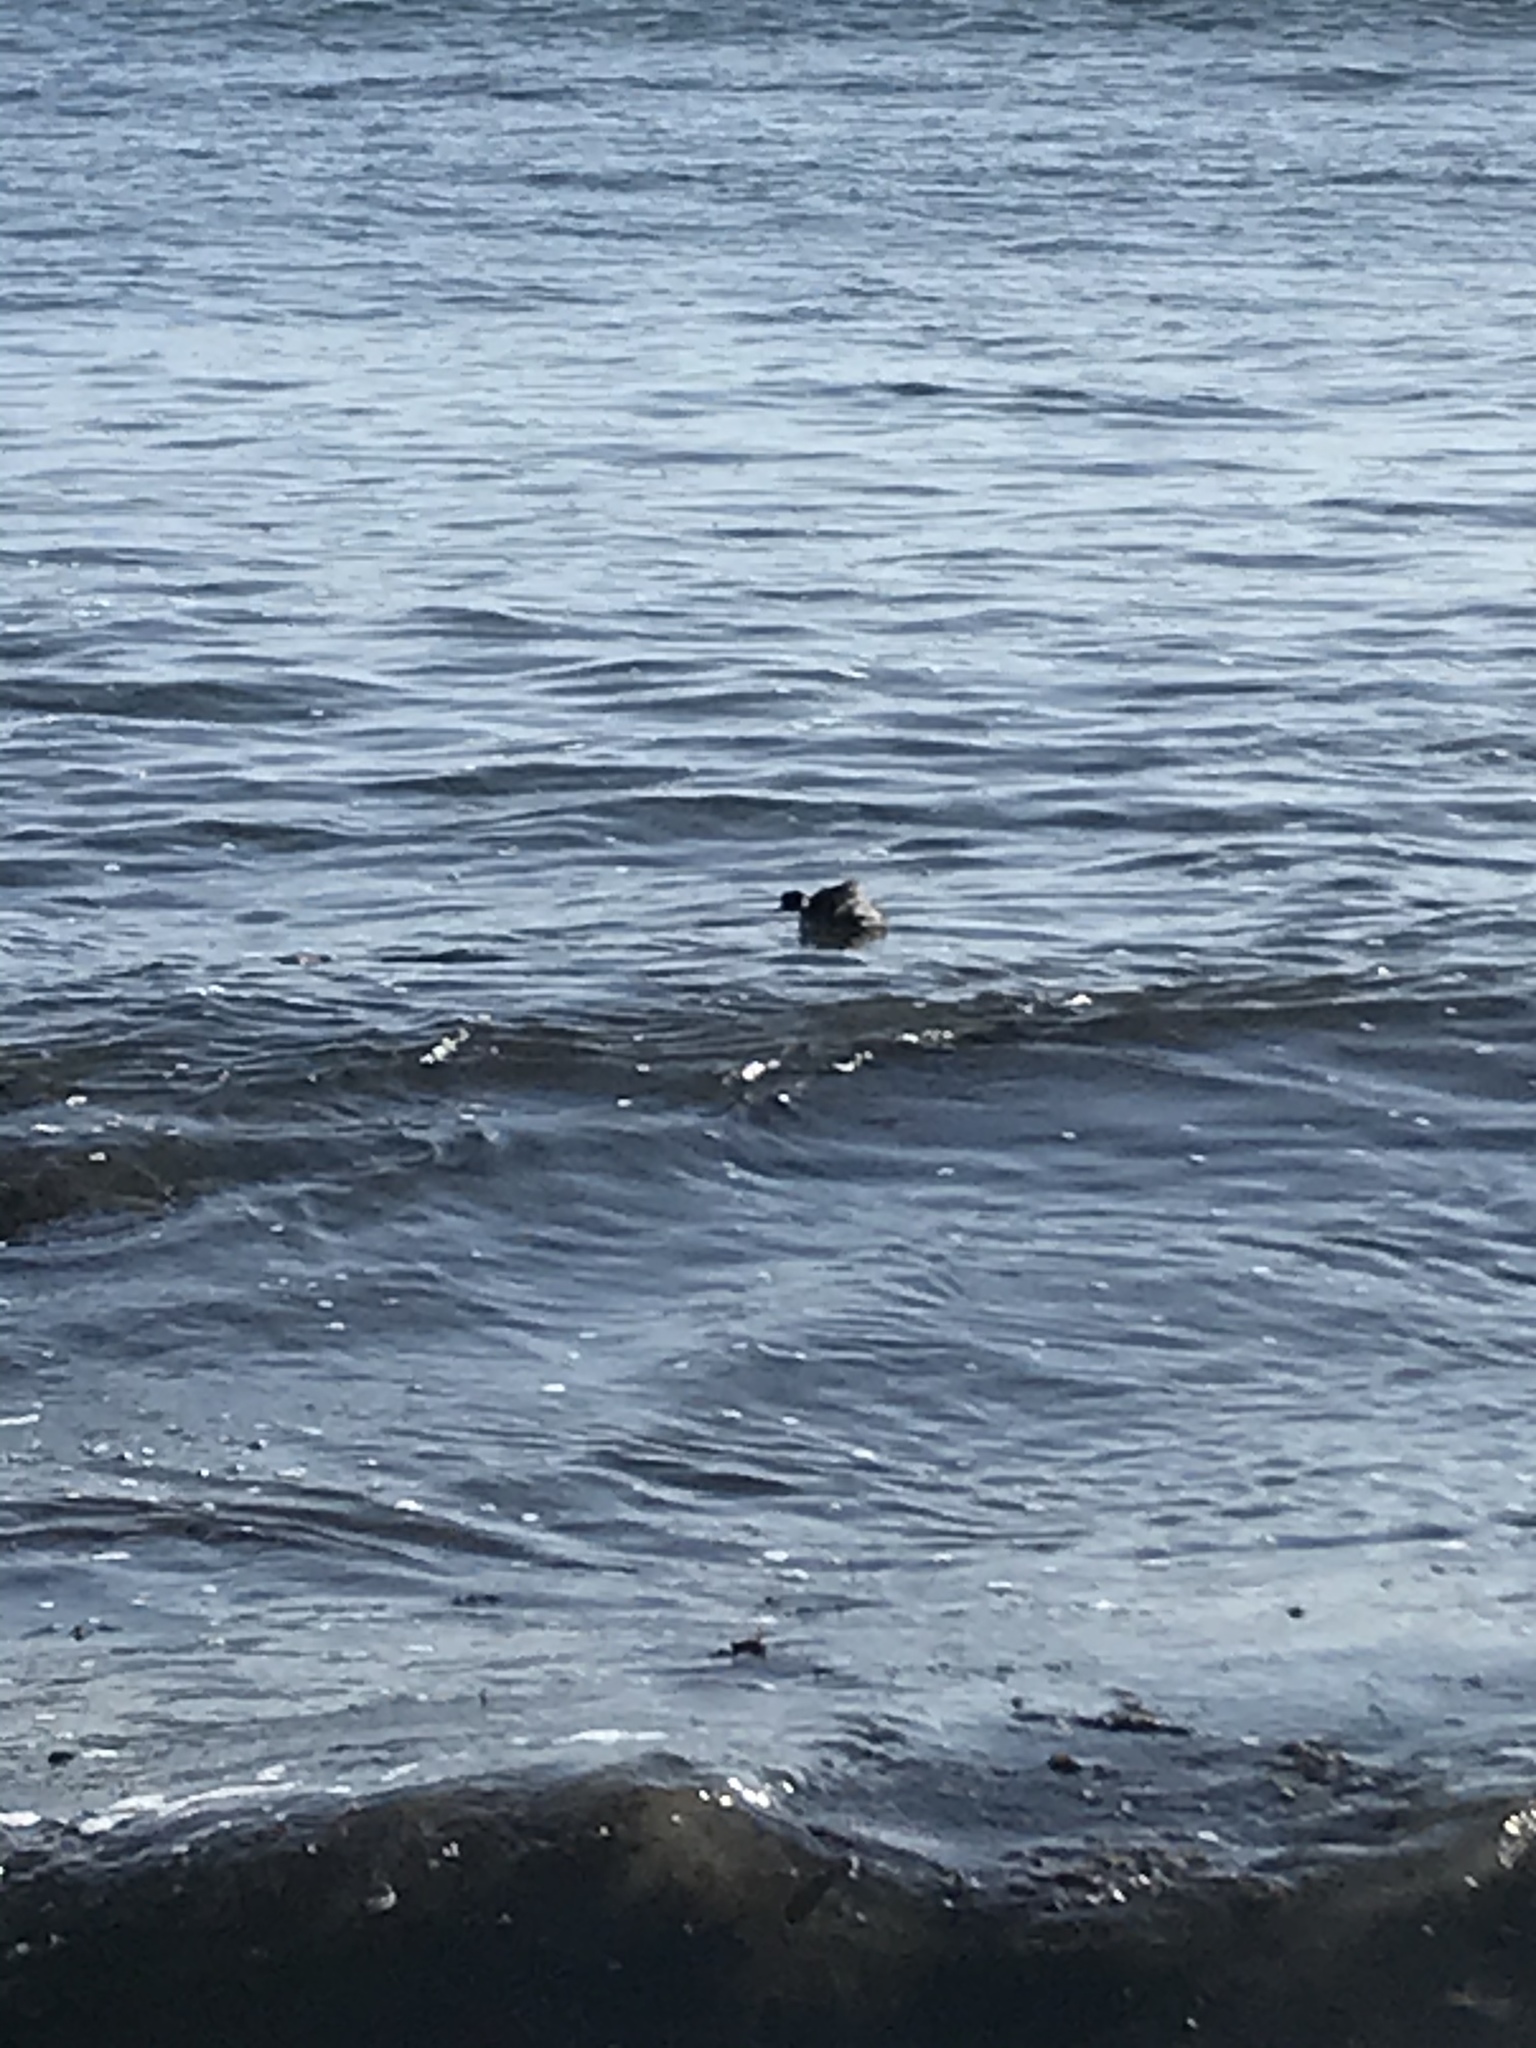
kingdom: Animalia
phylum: Chordata
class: Aves
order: Podicipediformes
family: Podicipedidae
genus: Podiceps
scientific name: Podiceps nigricollis
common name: Black-necked grebe
